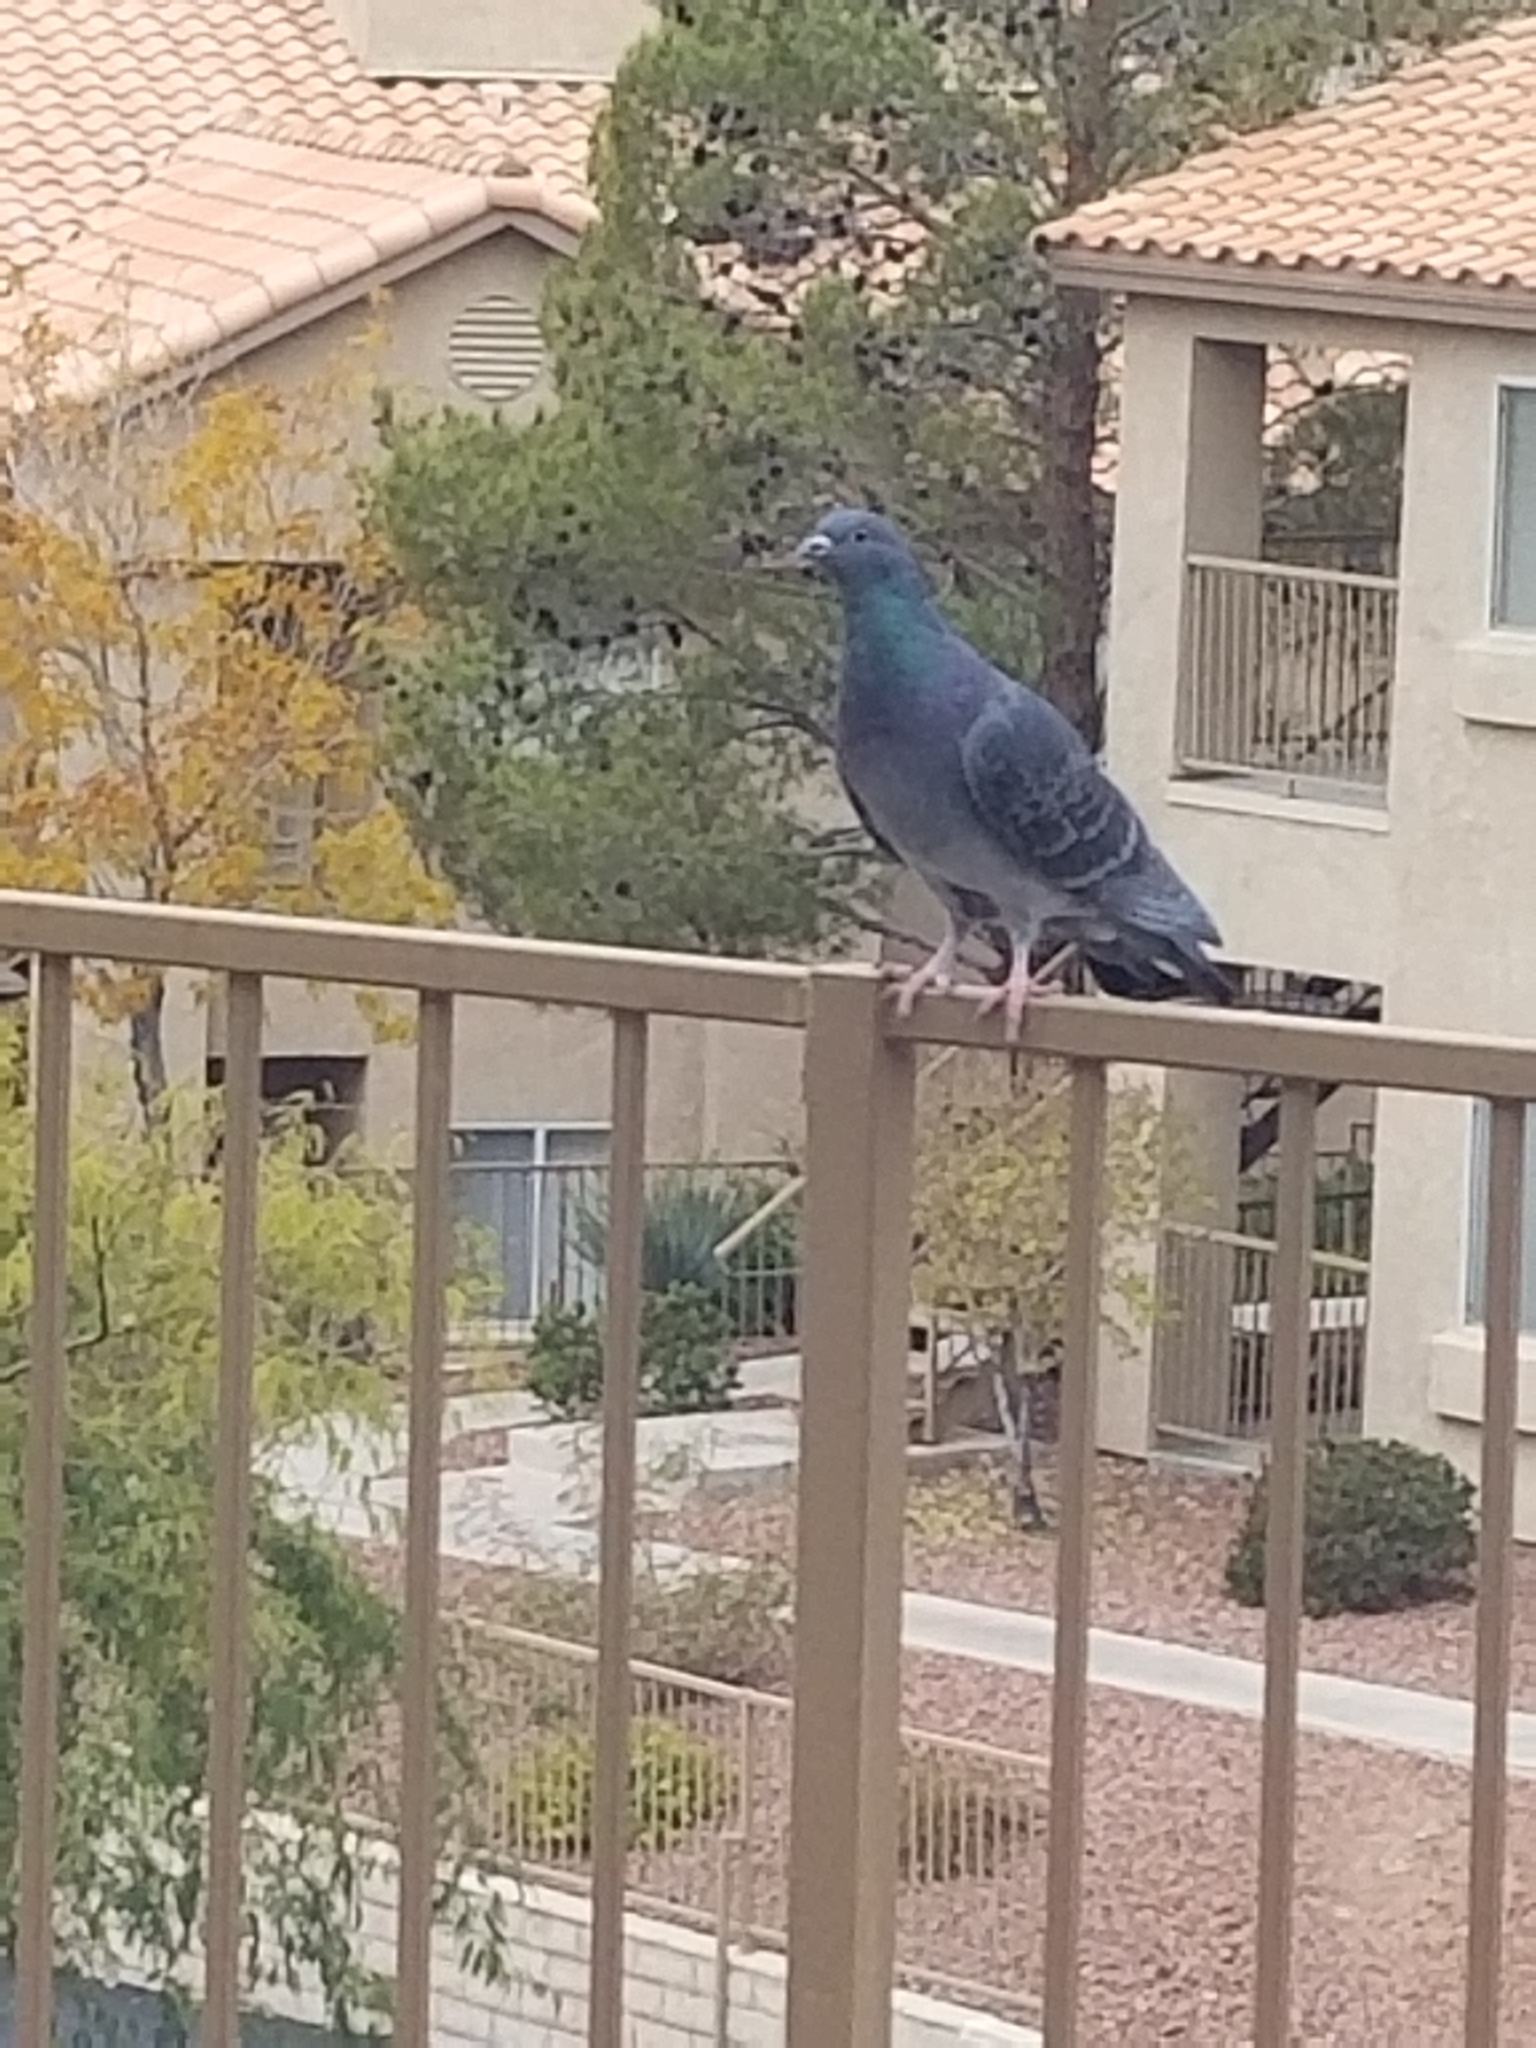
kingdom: Animalia
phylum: Chordata
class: Aves
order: Columbiformes
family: Columbidae
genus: Columba
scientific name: Columba livia
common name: Rock pigeon
